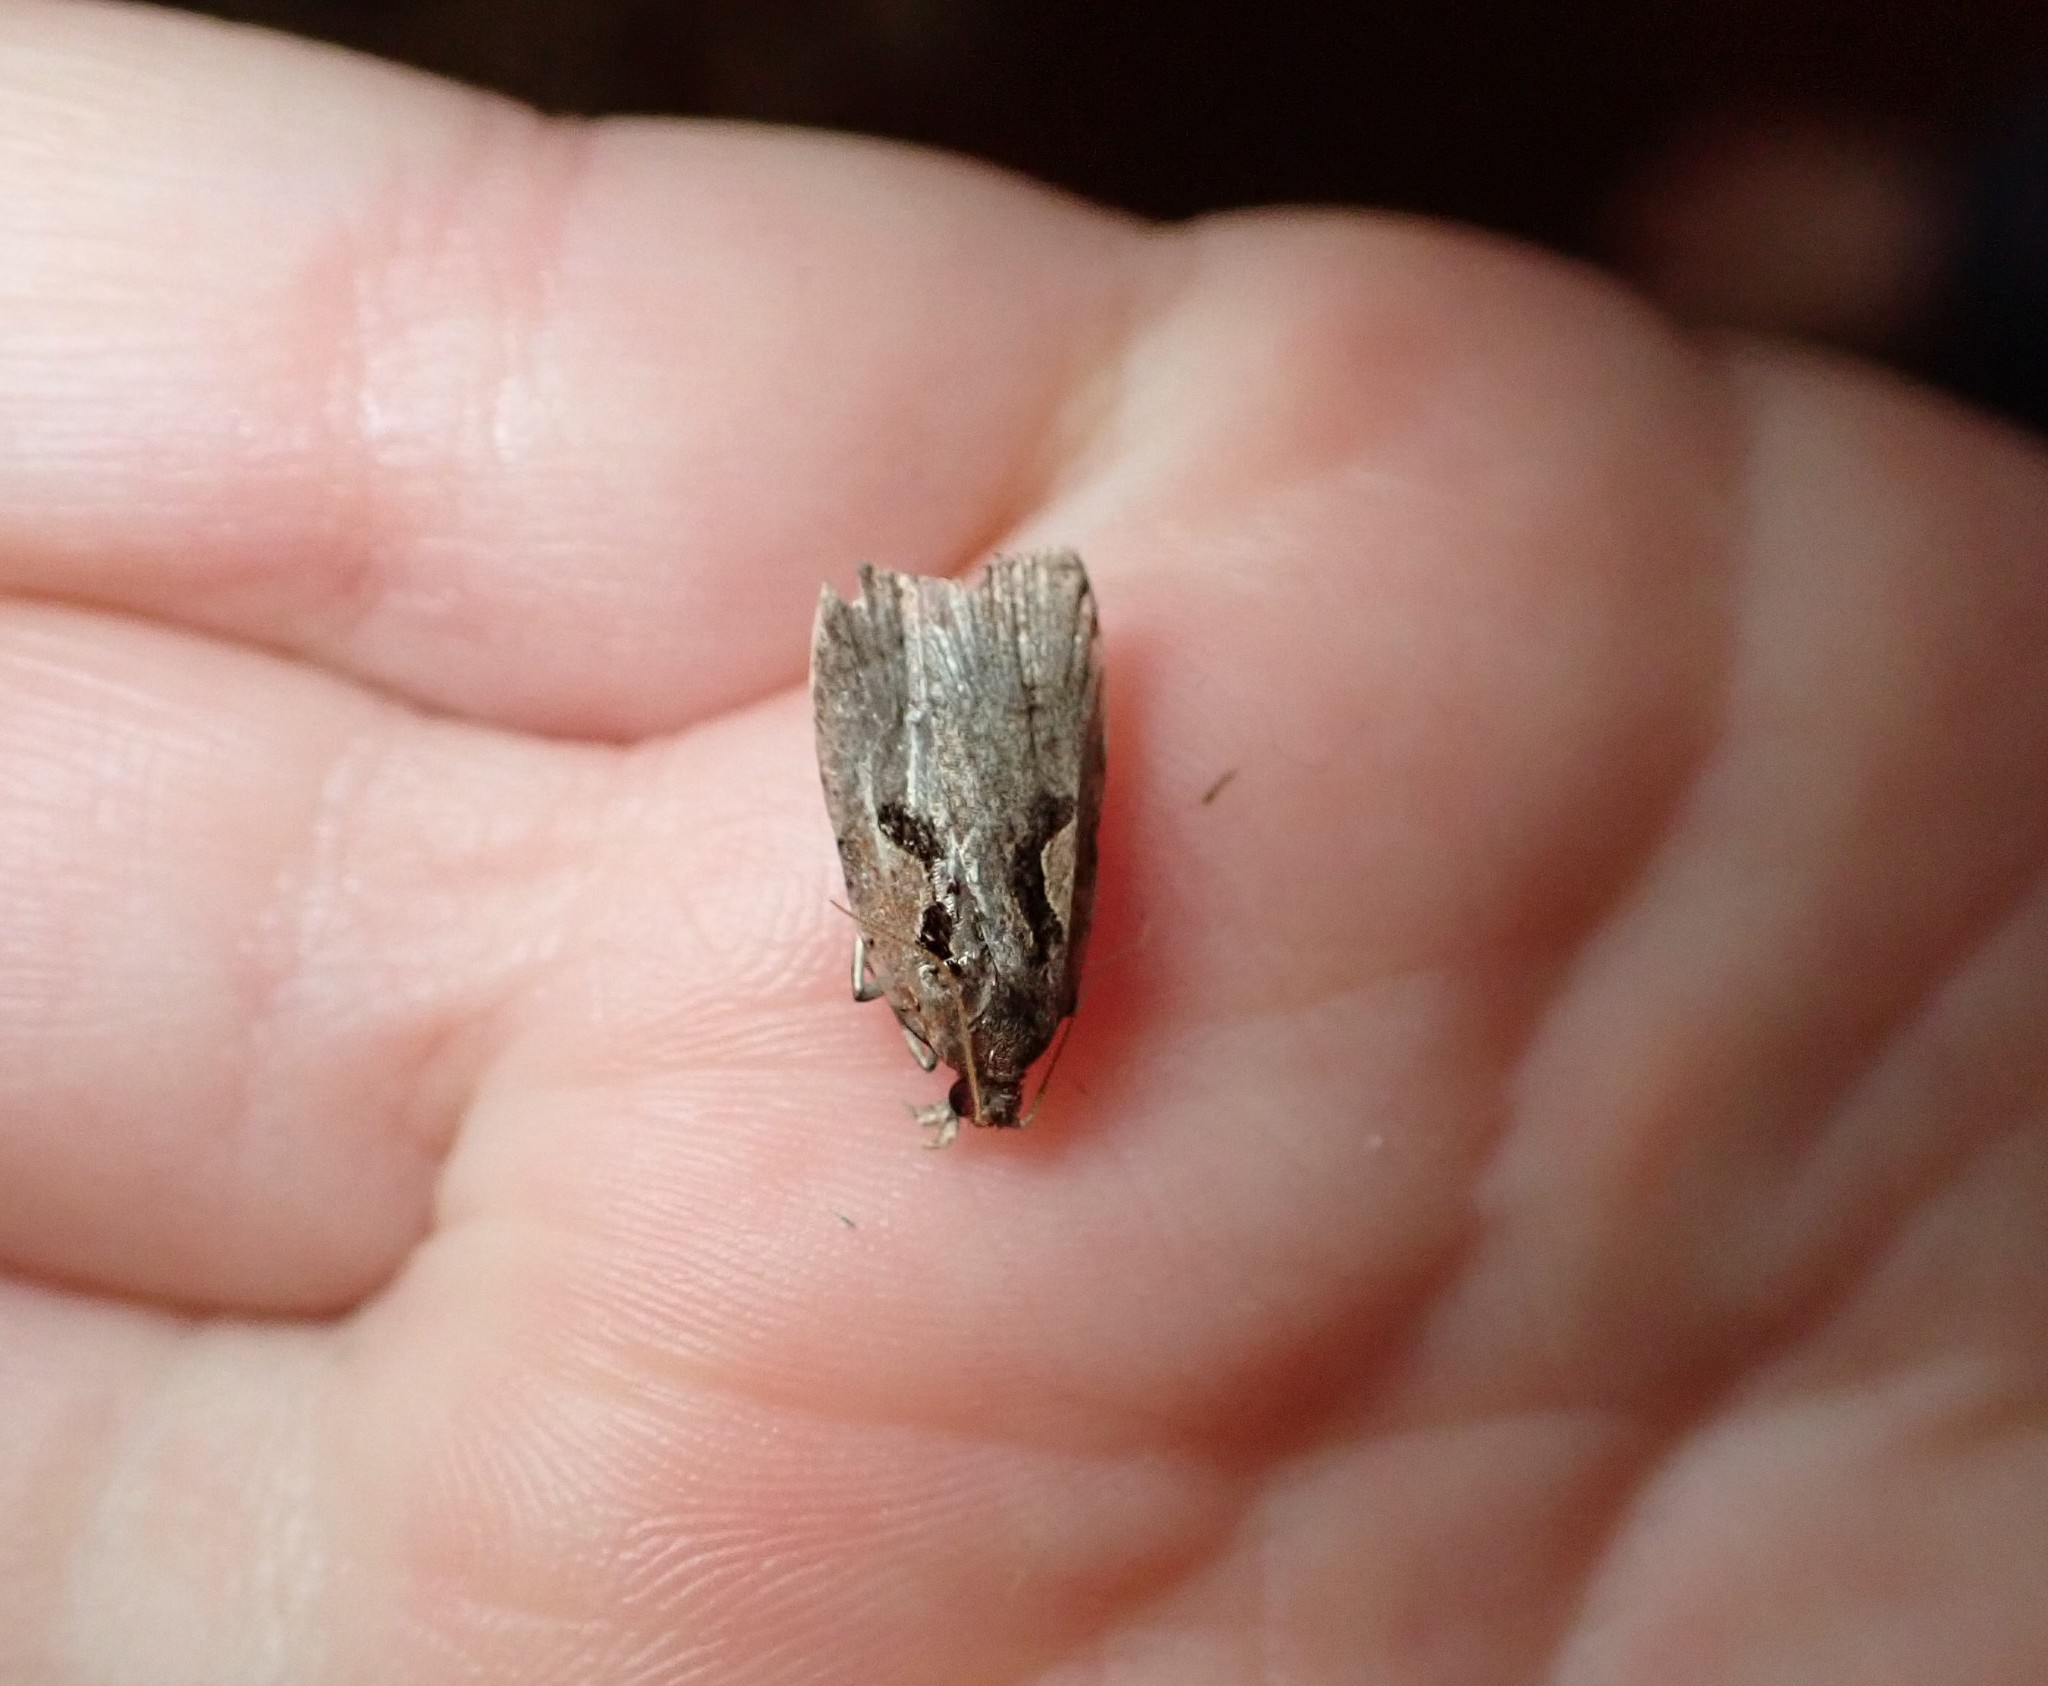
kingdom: Animalia
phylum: Arthropoda
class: Insecta
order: Lepidoptera
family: Tortricidae
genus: Cnephasia
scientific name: Cnephasia jactatana
